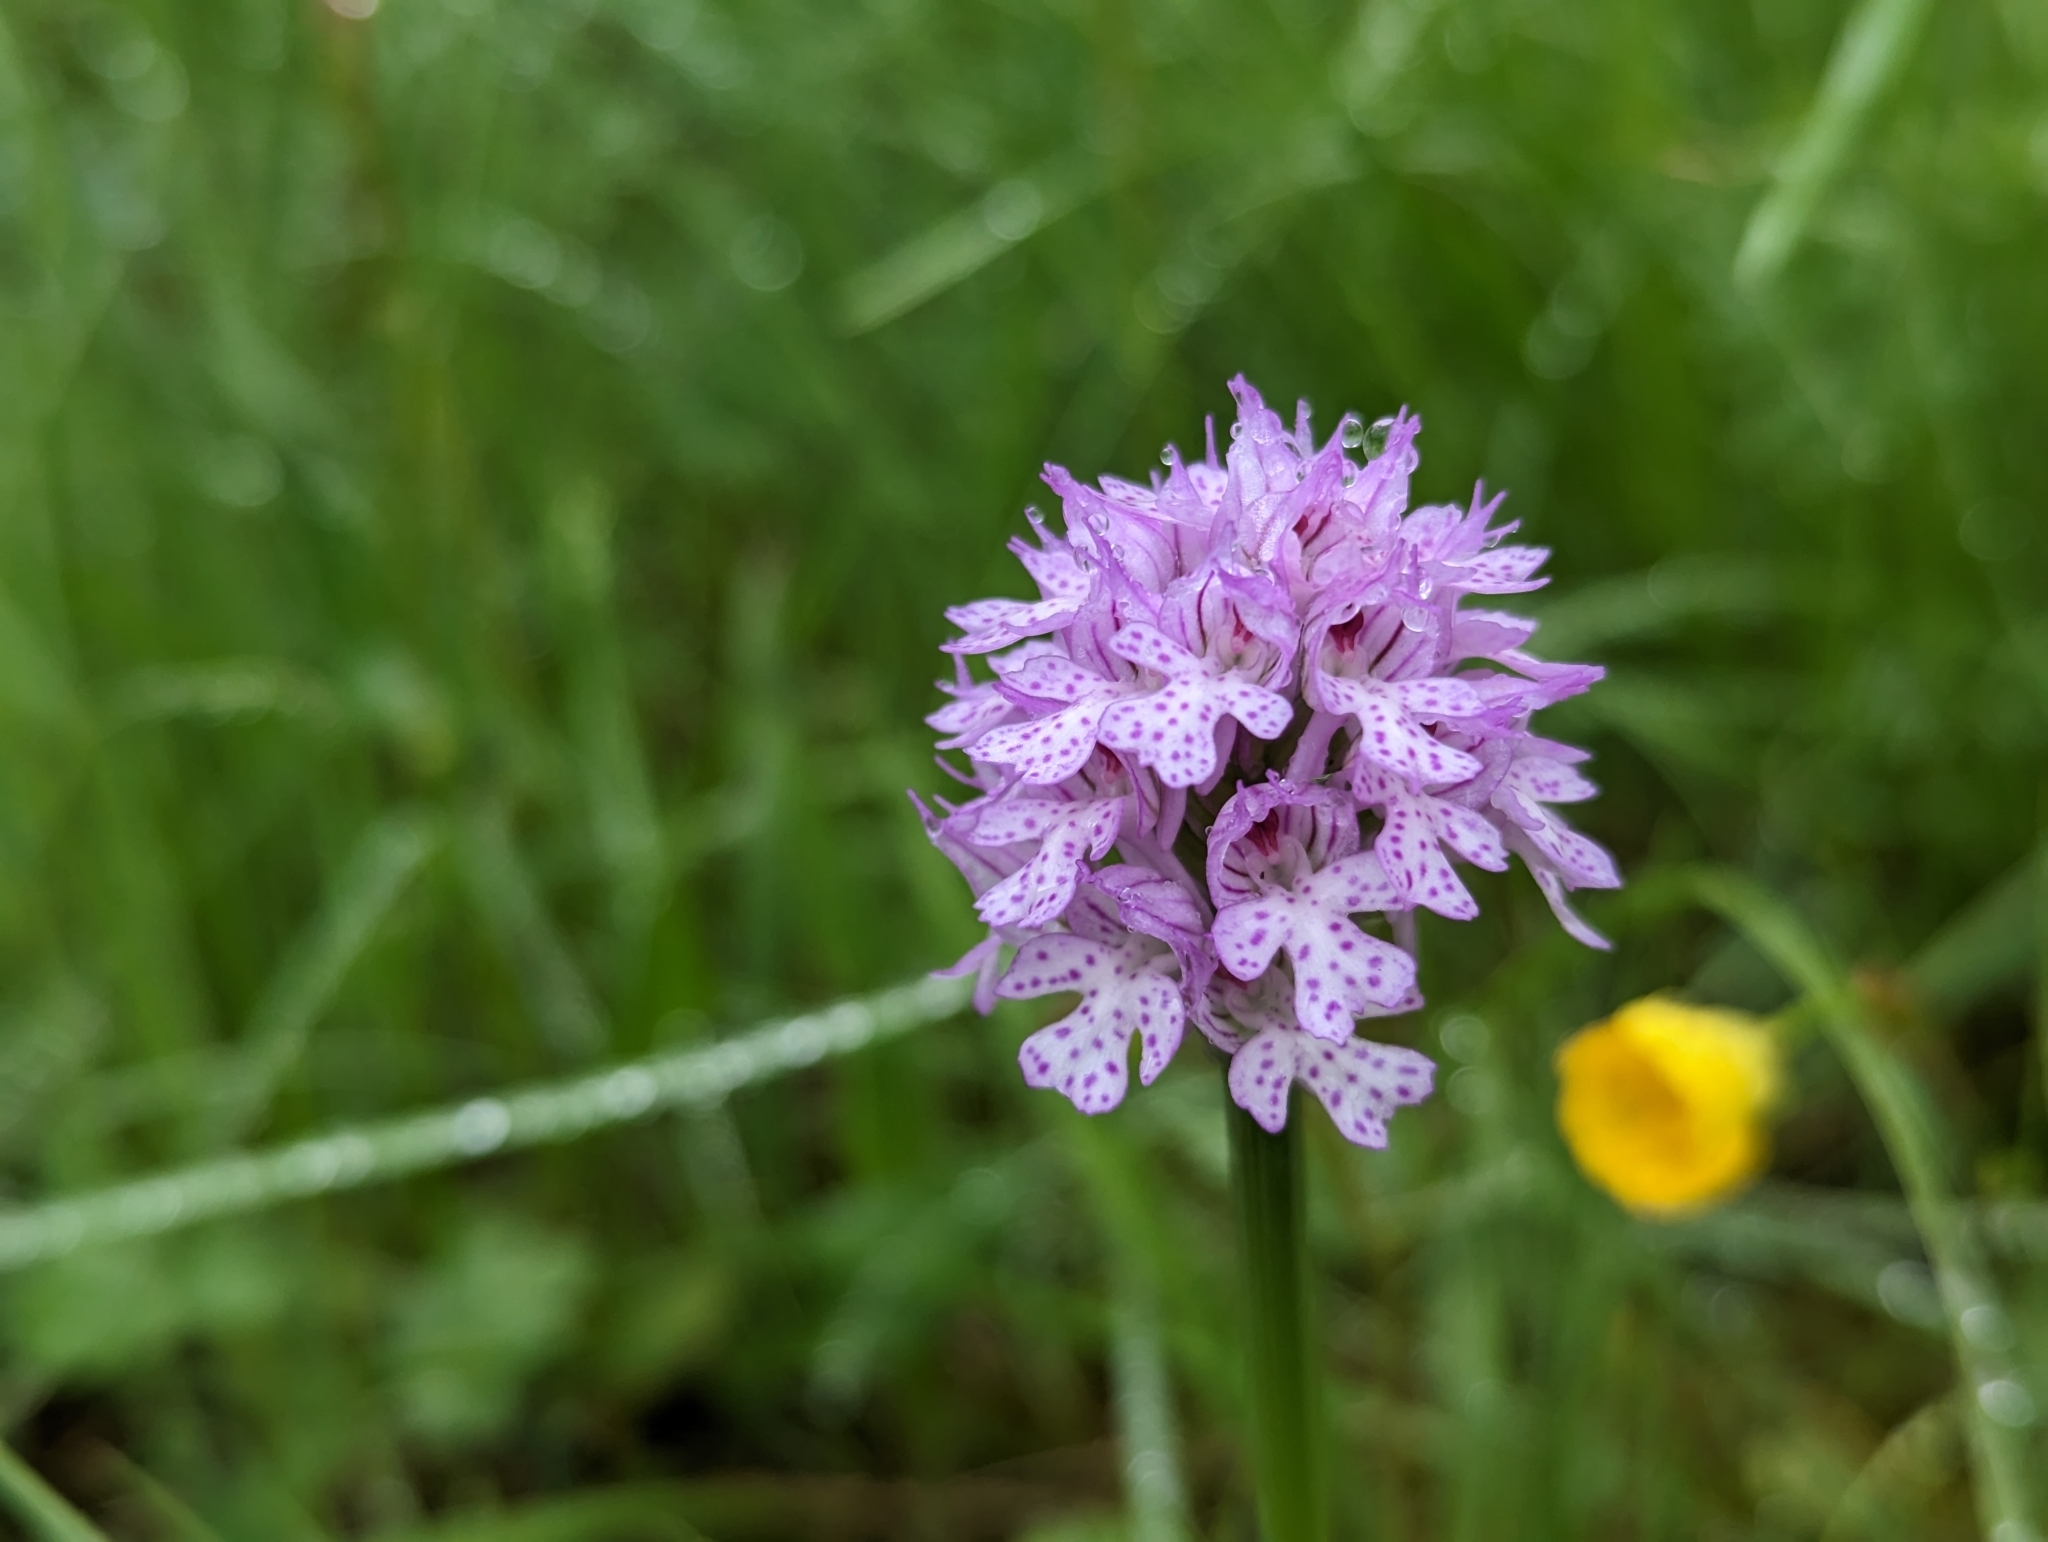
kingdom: Plantae
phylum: Tracheophyta
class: Liliopsida
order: Asparagales
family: Orchidaceae
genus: Neotinea
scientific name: Neotinea tridentata
